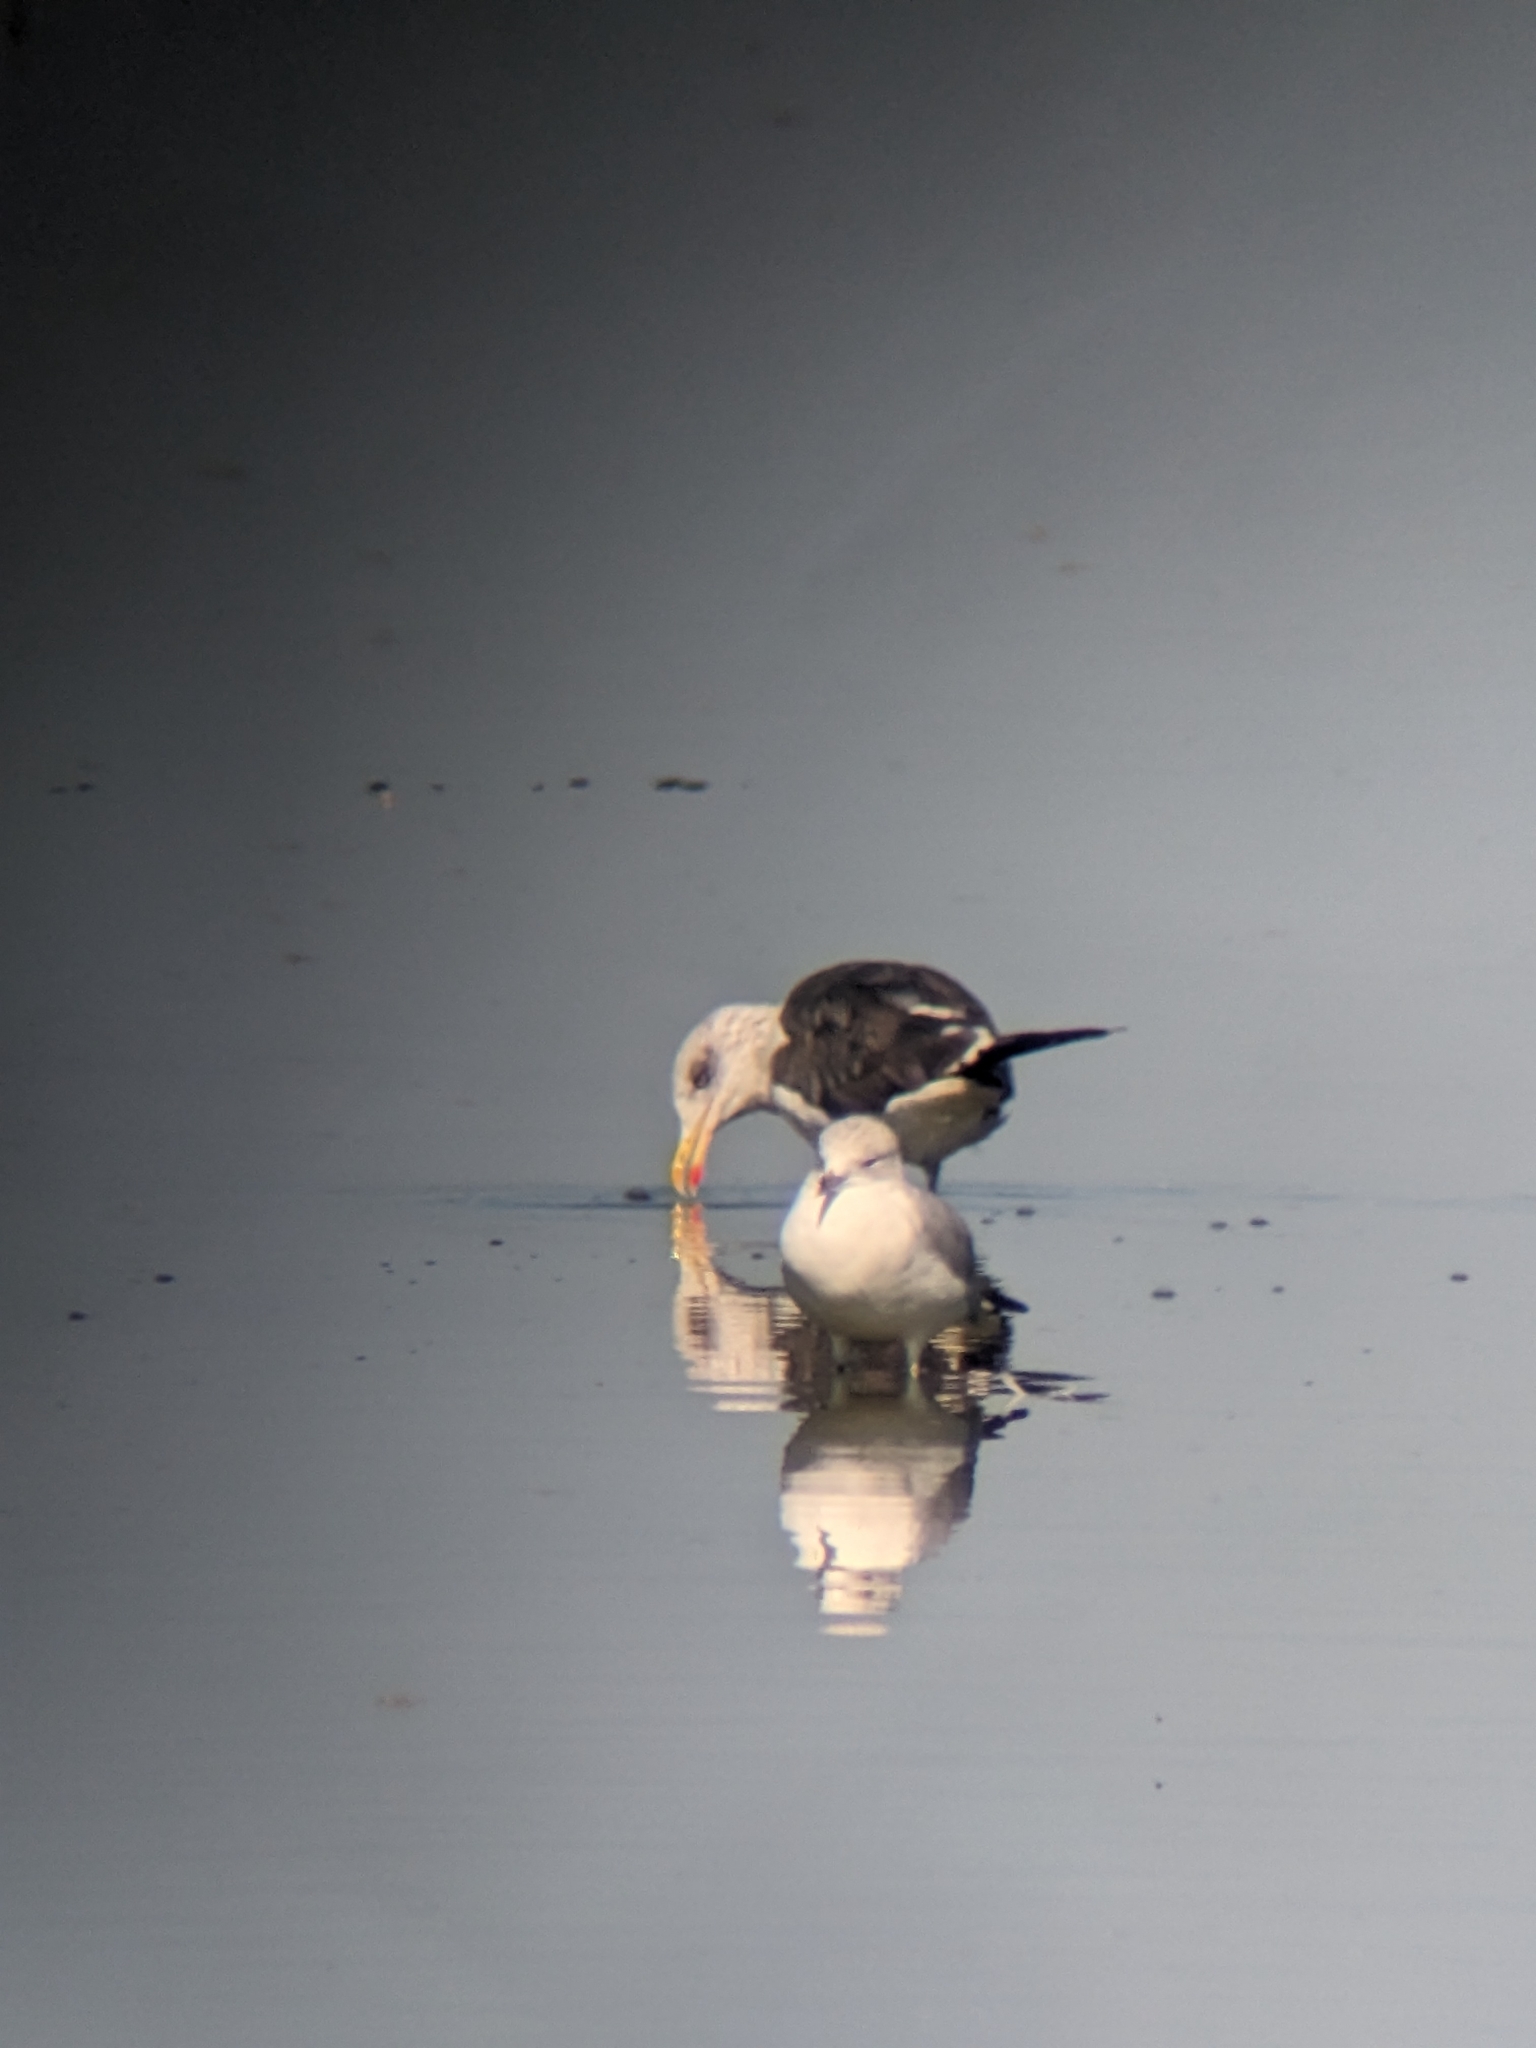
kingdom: Animalia
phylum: Chordata
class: Aves
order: Charadriiformes
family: Laridae
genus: Larus
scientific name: Larus fuscus
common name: Lesser black-backed gull
